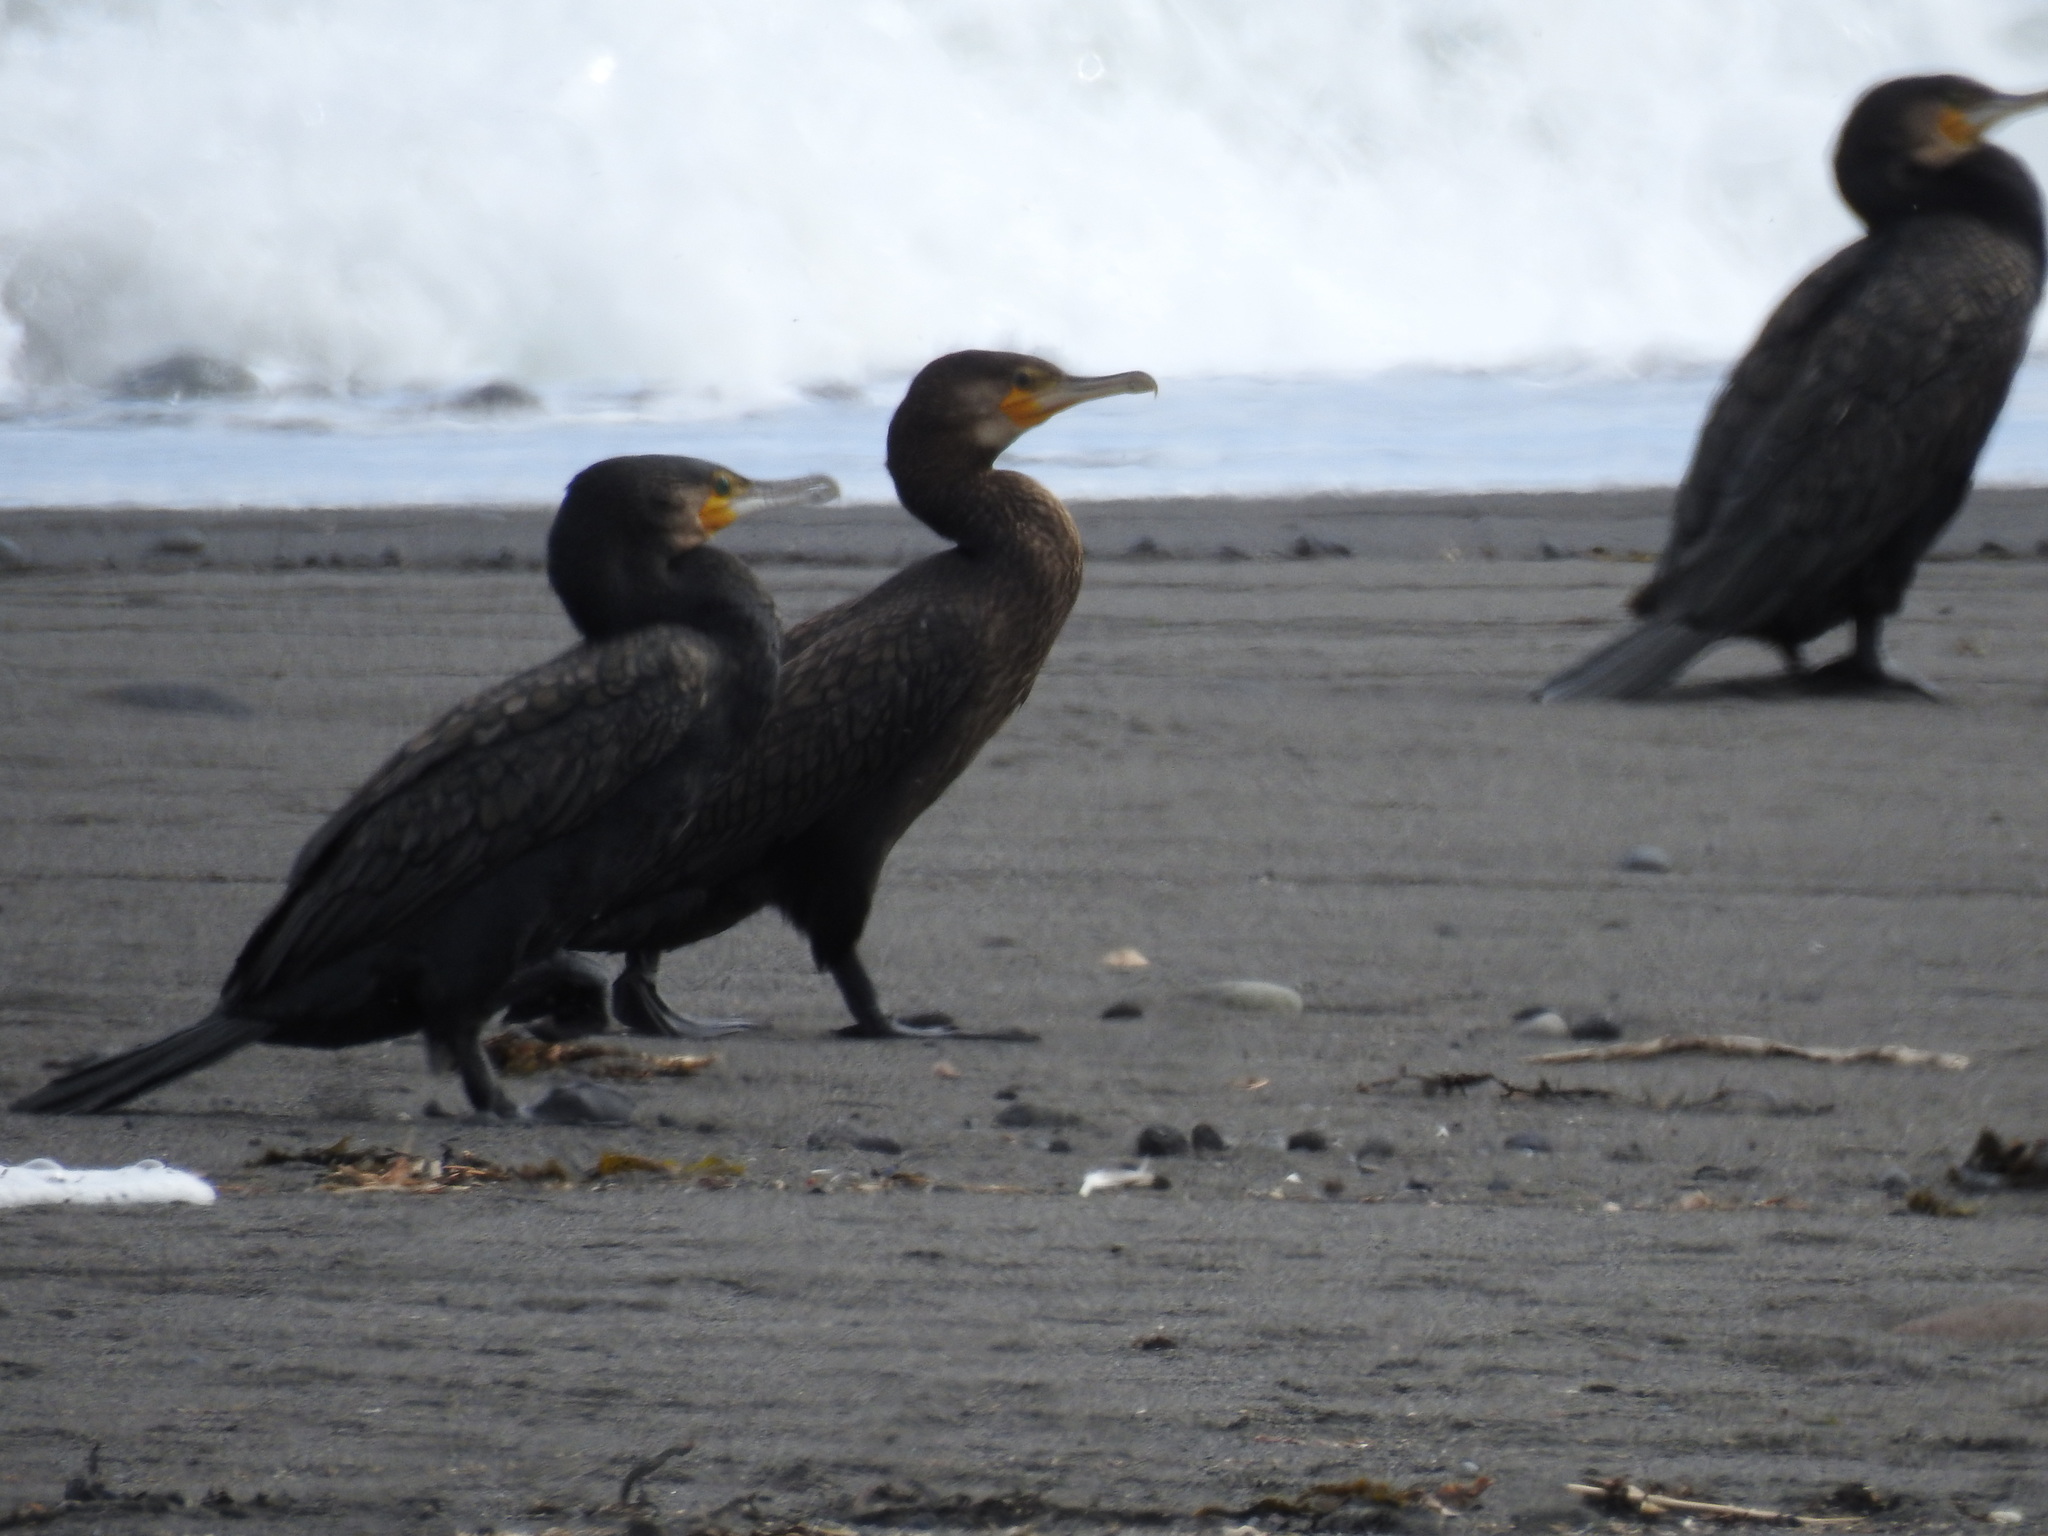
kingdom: Animalia
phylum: Chordata
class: Aves
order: Suliformes
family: Phalacrocoracidae
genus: Phalacrocorax
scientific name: Phalacrocorax carbo
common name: Great cormorant
